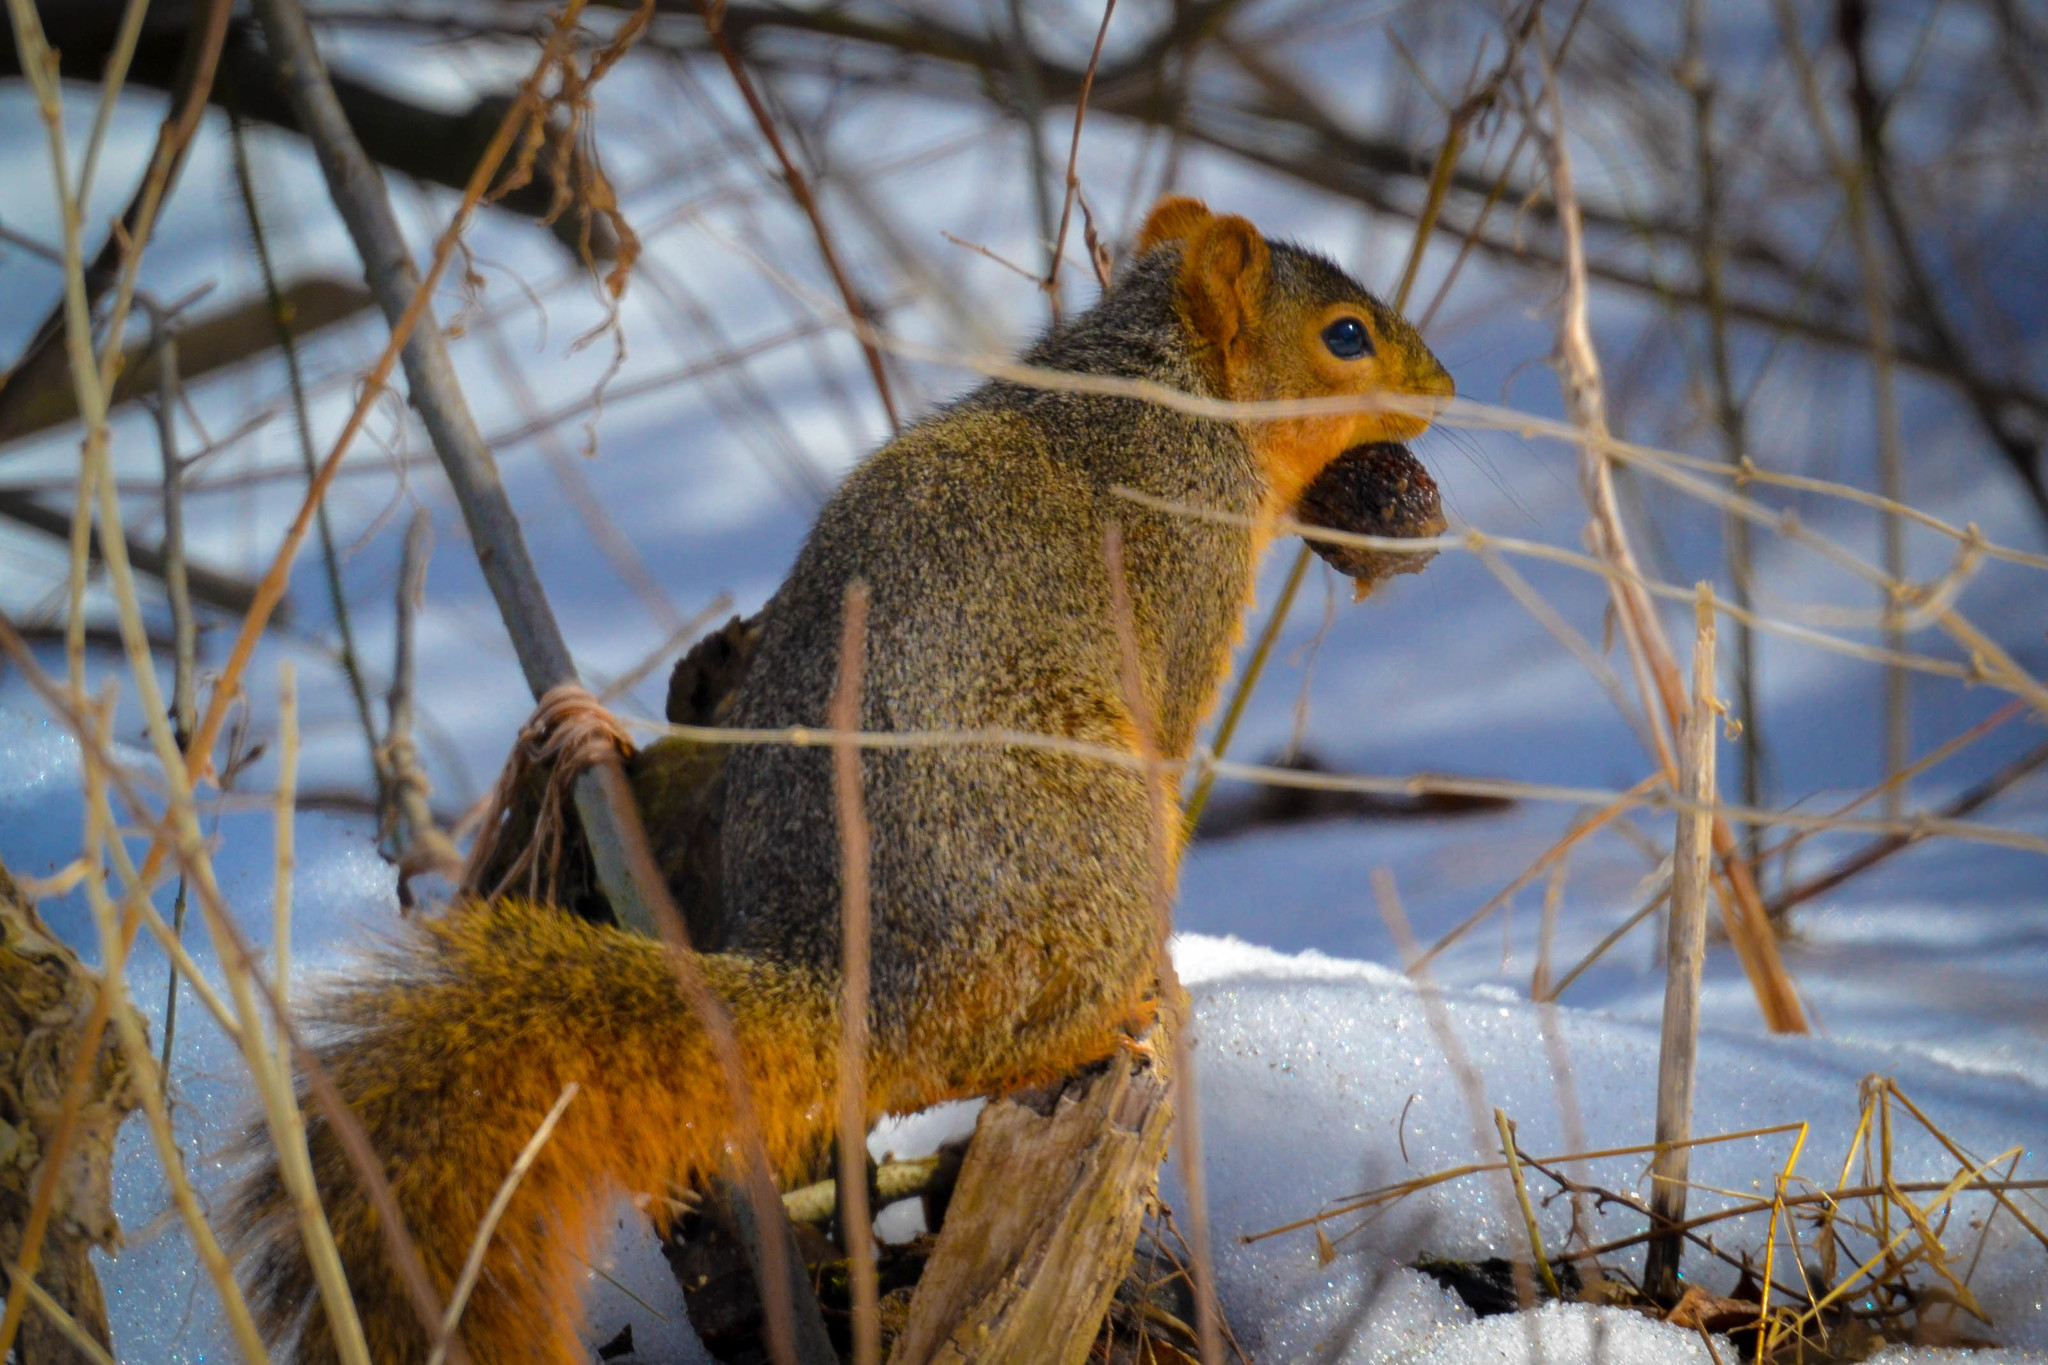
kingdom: Animalia
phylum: Chordata
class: Mammalia
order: Rodentia
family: Sciuridae
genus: Sciurus
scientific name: Sciurus niger
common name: Fox squirrel
